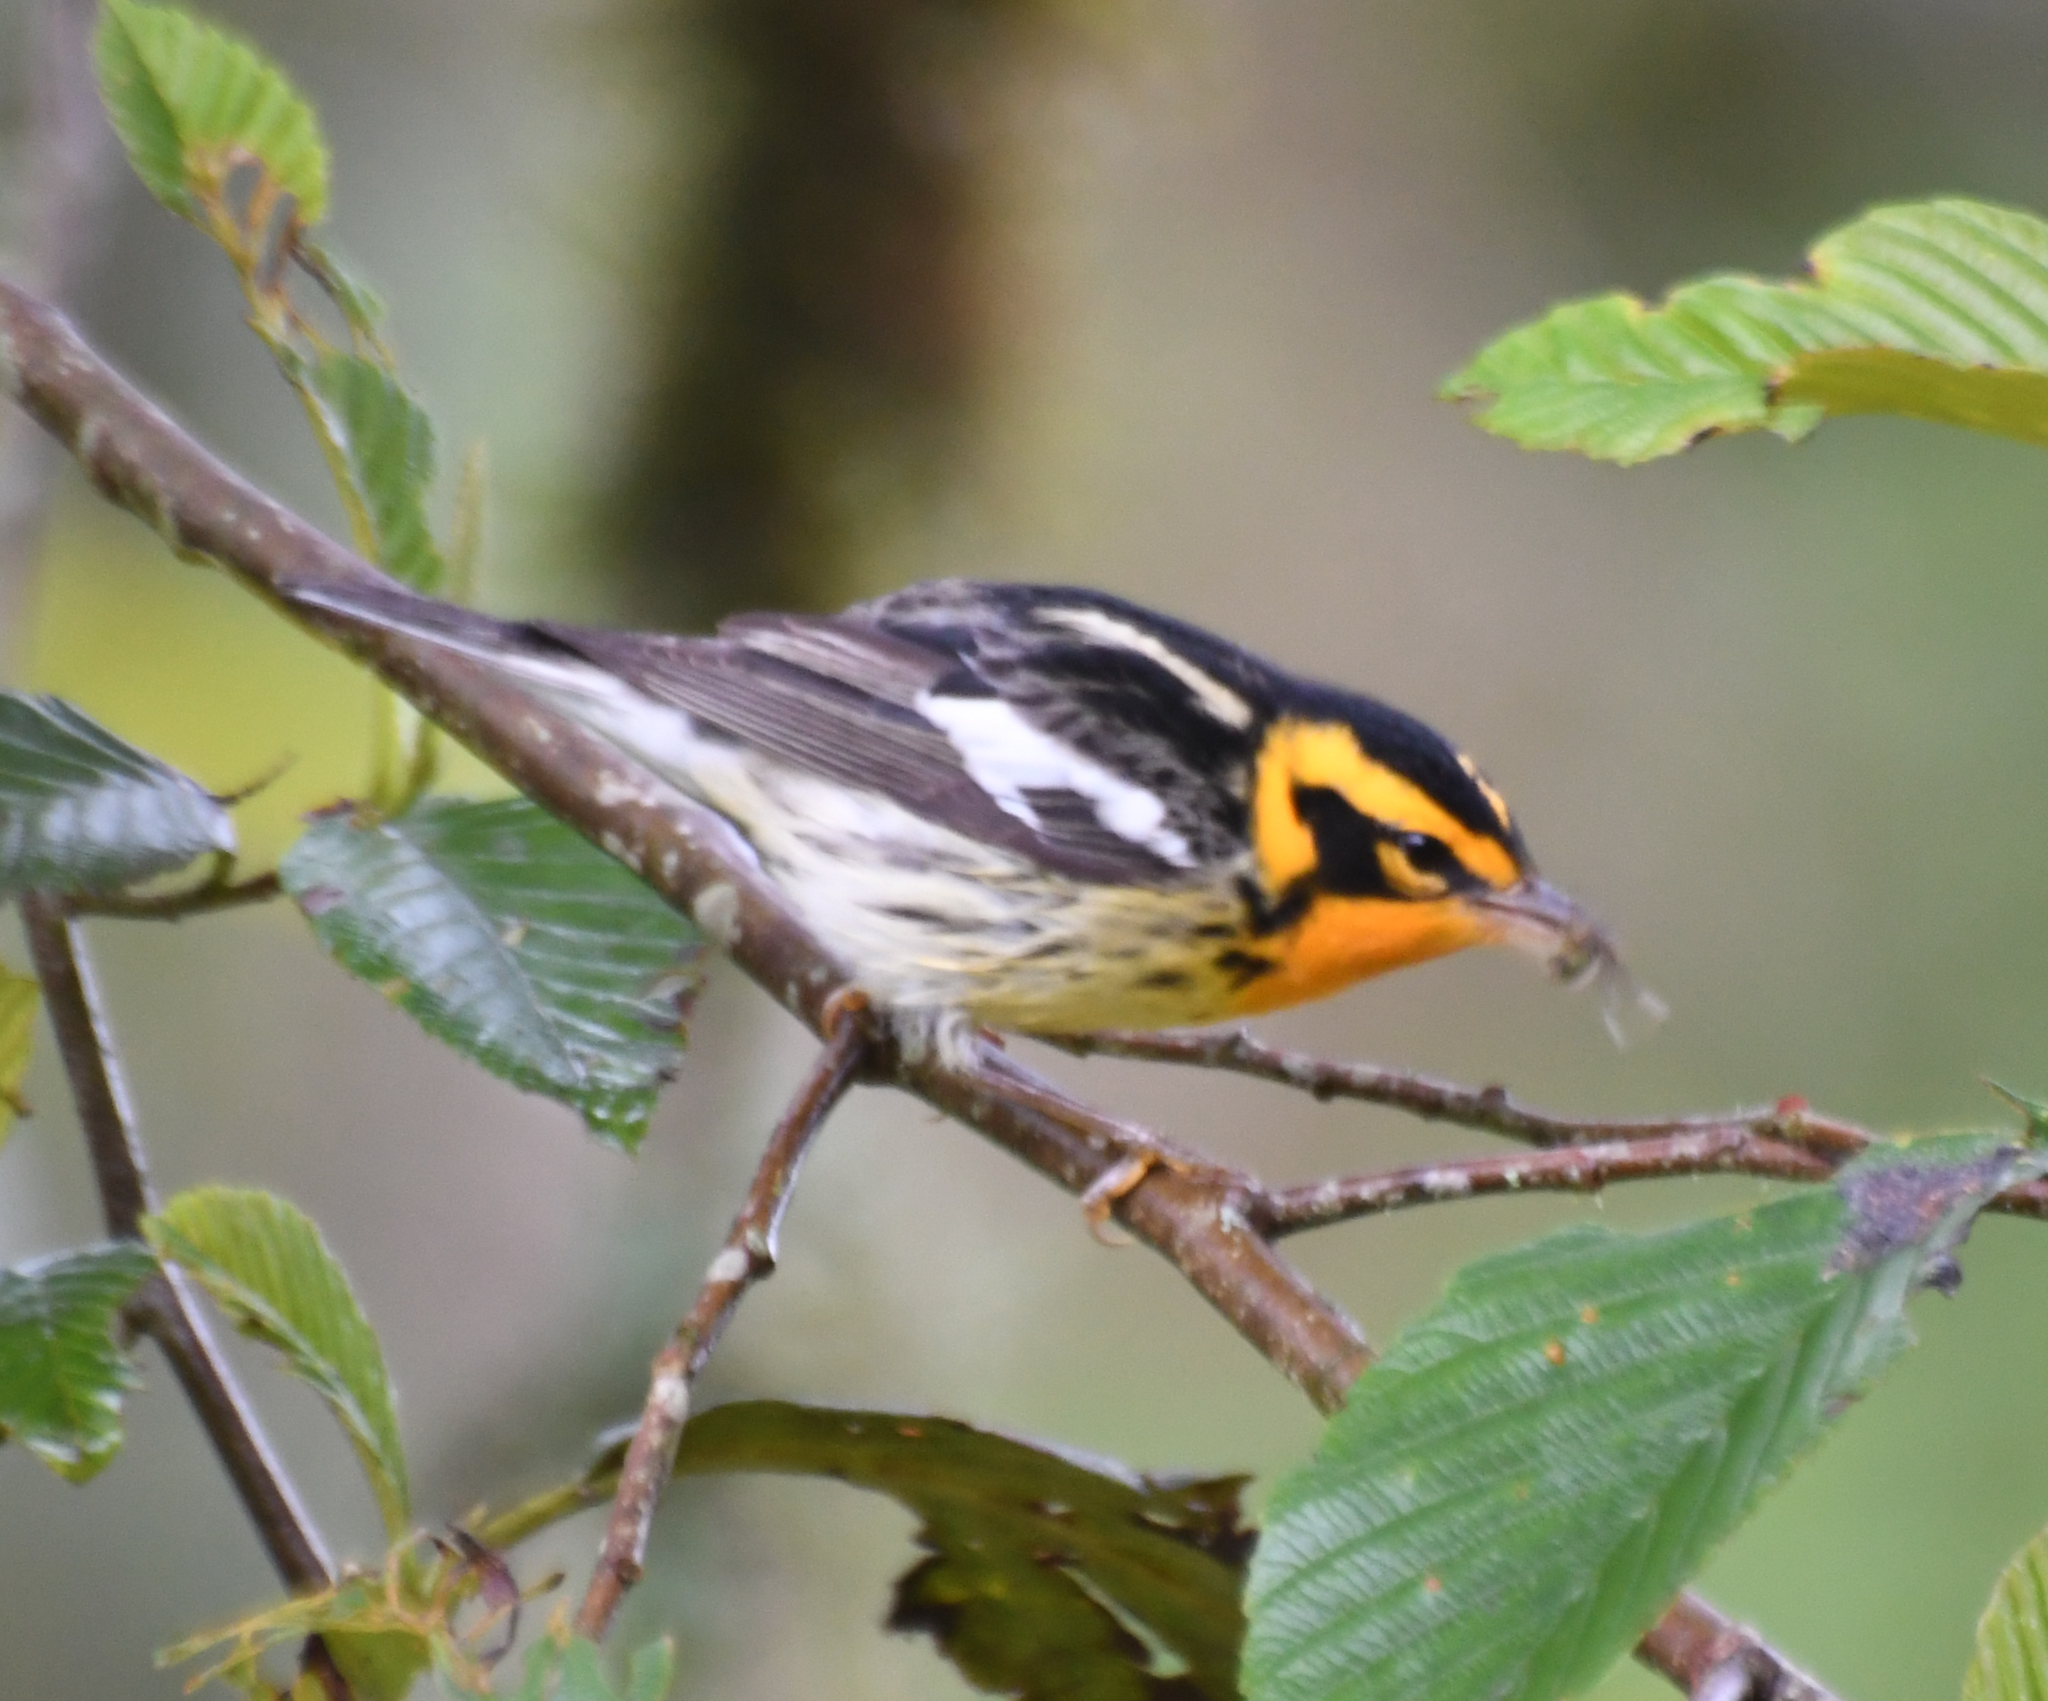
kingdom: Animalia
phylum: Chordata
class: Aves
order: Passeriformes
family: Parulidae
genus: Setophaga
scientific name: Setophaga fusca
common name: Blackburnian warbler
